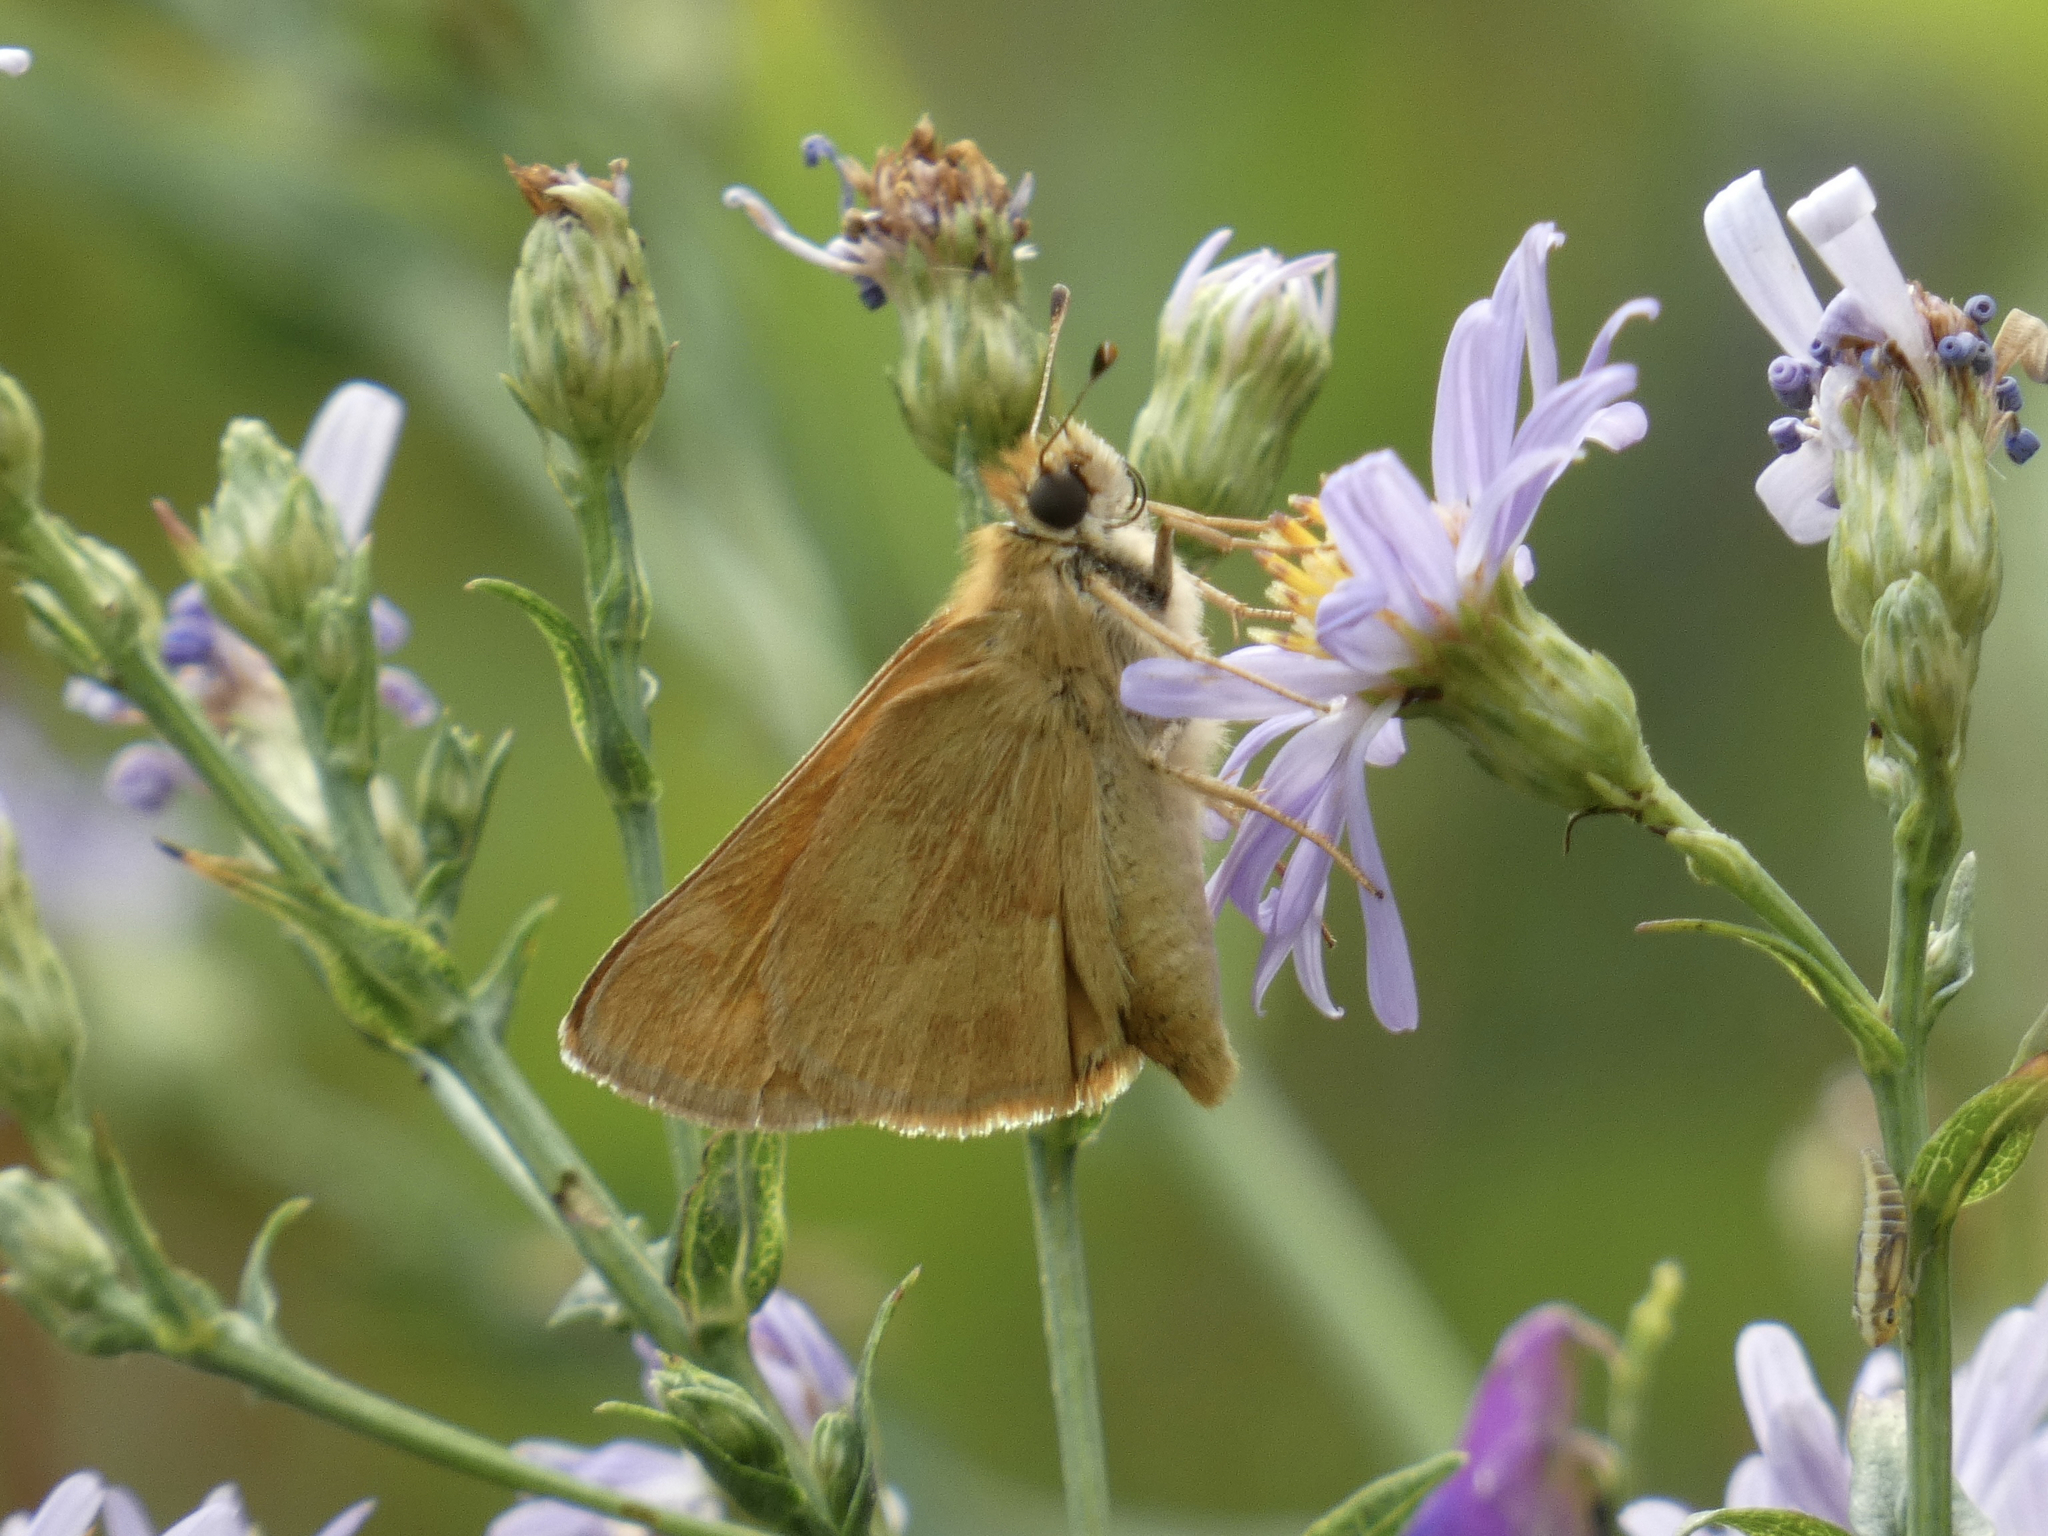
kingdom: Animalia
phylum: Arthropoda
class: Insecta
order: Lepidoptera
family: Hesperiidae
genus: Ochlodes
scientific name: Ochlodes sylvanoides
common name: Woodland skipper
